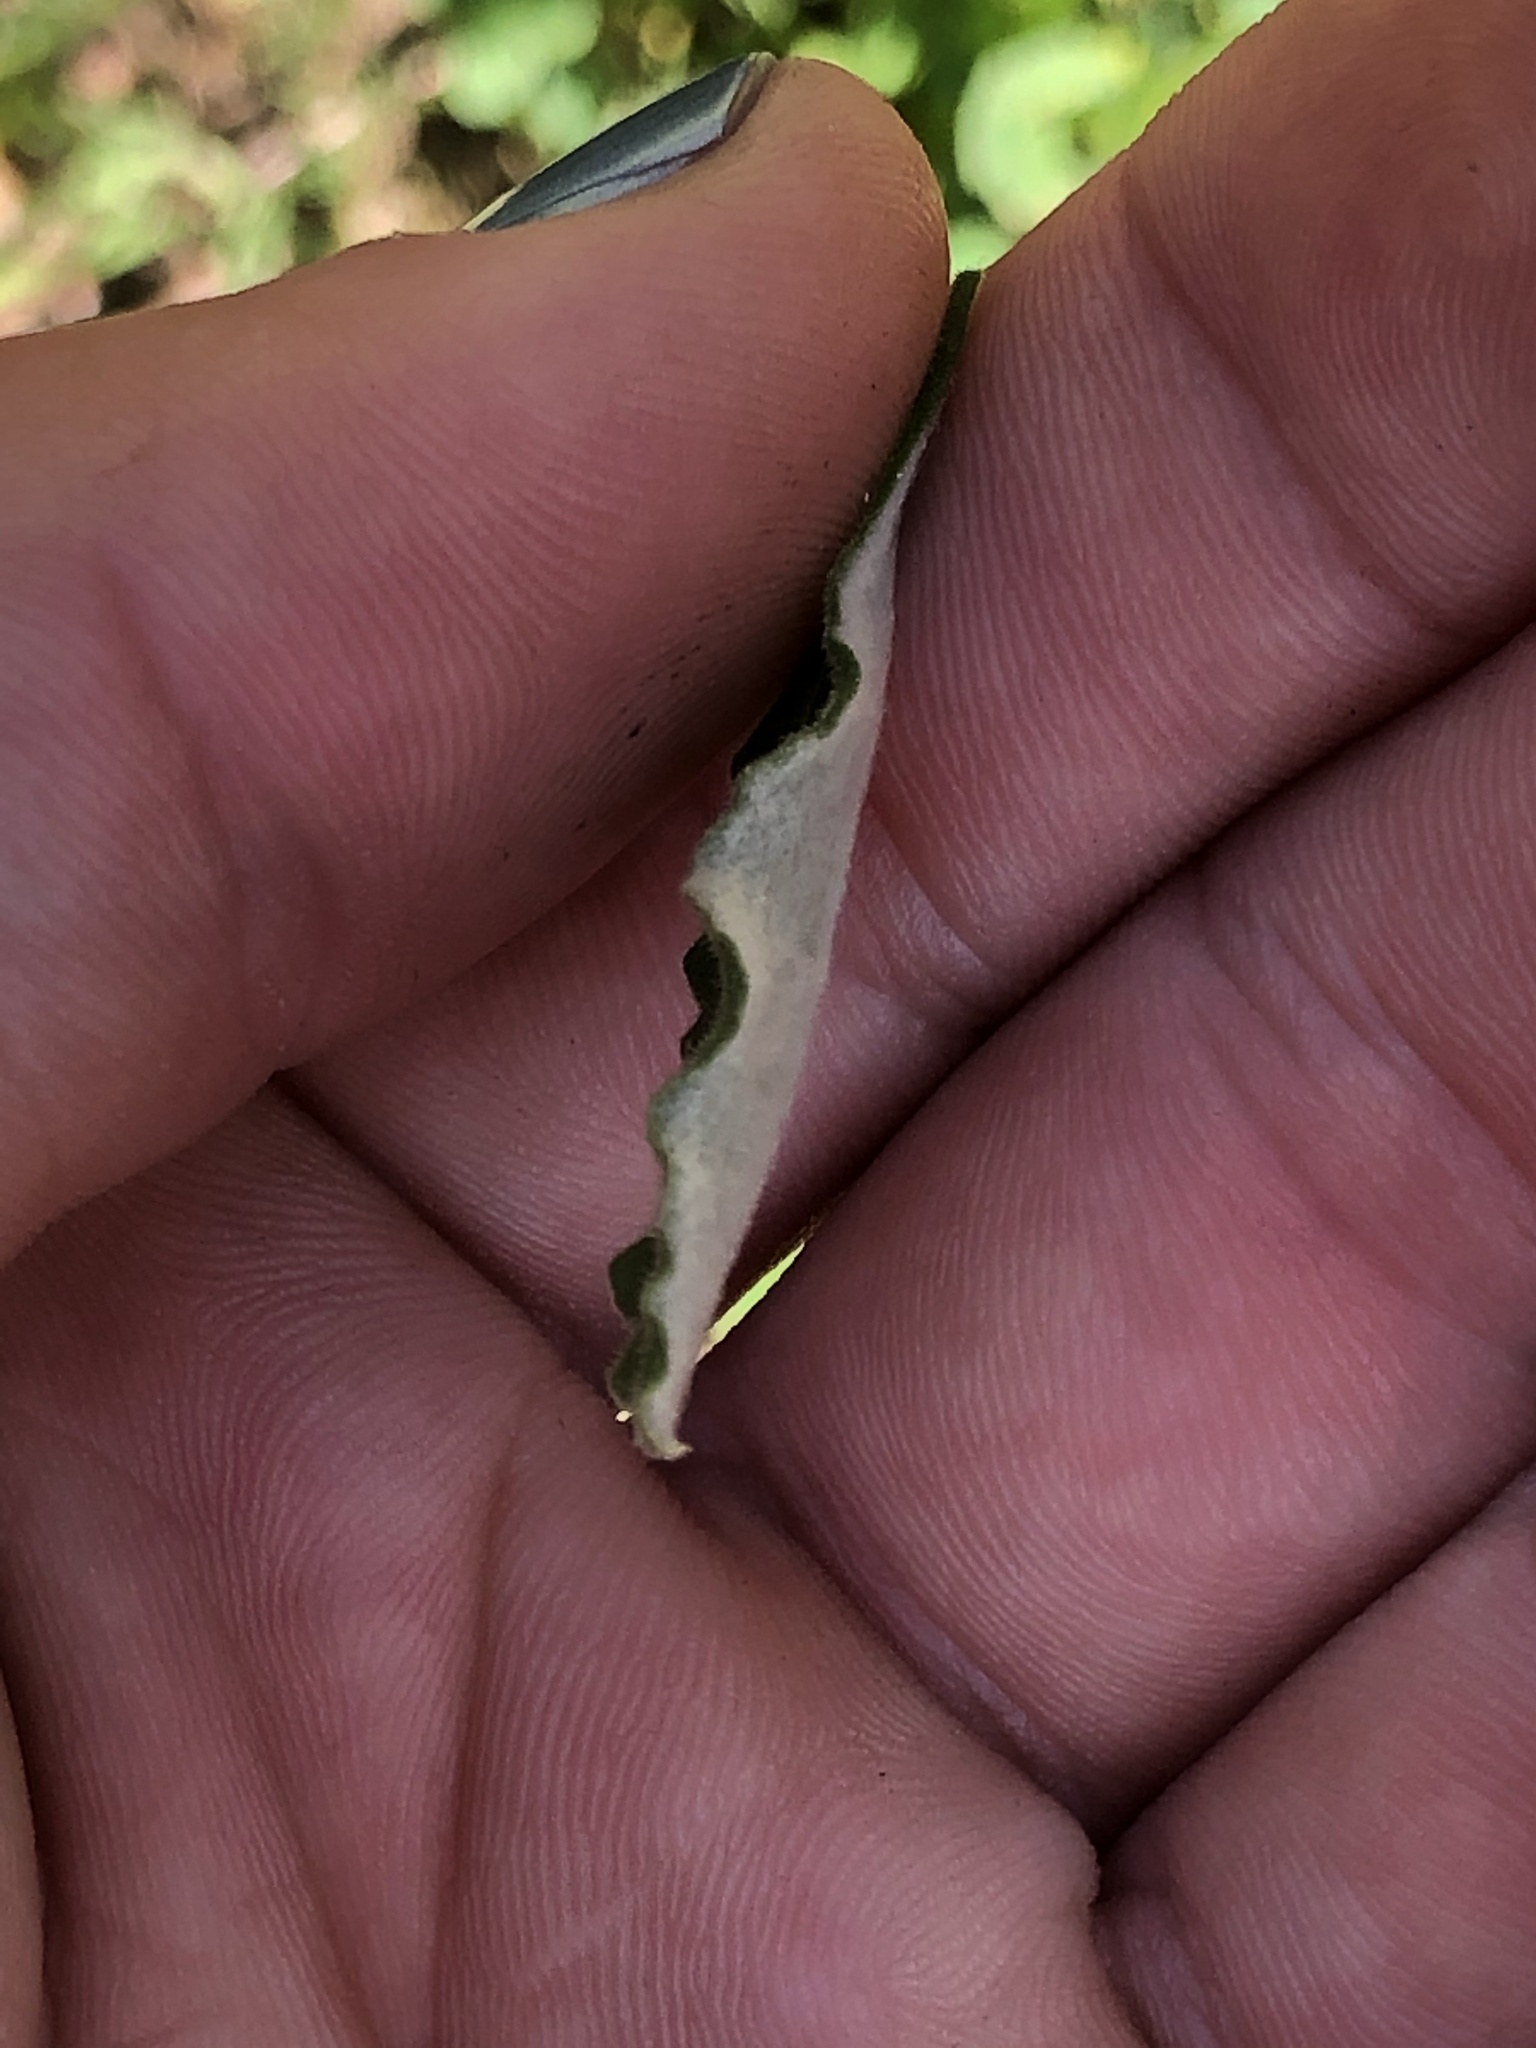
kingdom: Plantae
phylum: Tracheophyta
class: Magnoliopsida
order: Asterales
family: Asteraceae
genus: Pseudognaphalium
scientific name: Pseudognaphalium biolettii
